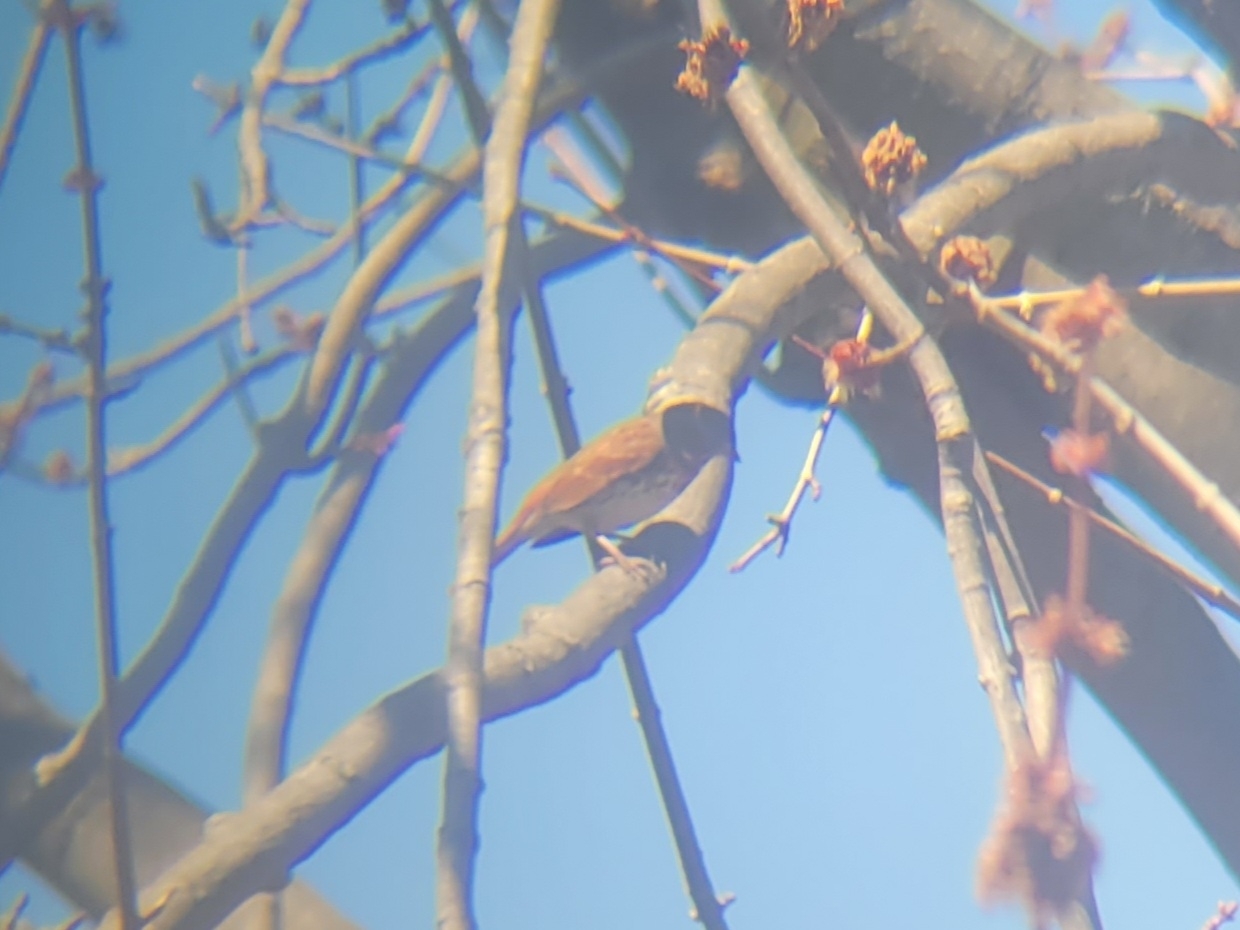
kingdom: Animalia
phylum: Chordata
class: Aves
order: Passeriformes
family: Passerellidae
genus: Passerella
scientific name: Passerella iliaca
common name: Fox sparrow
